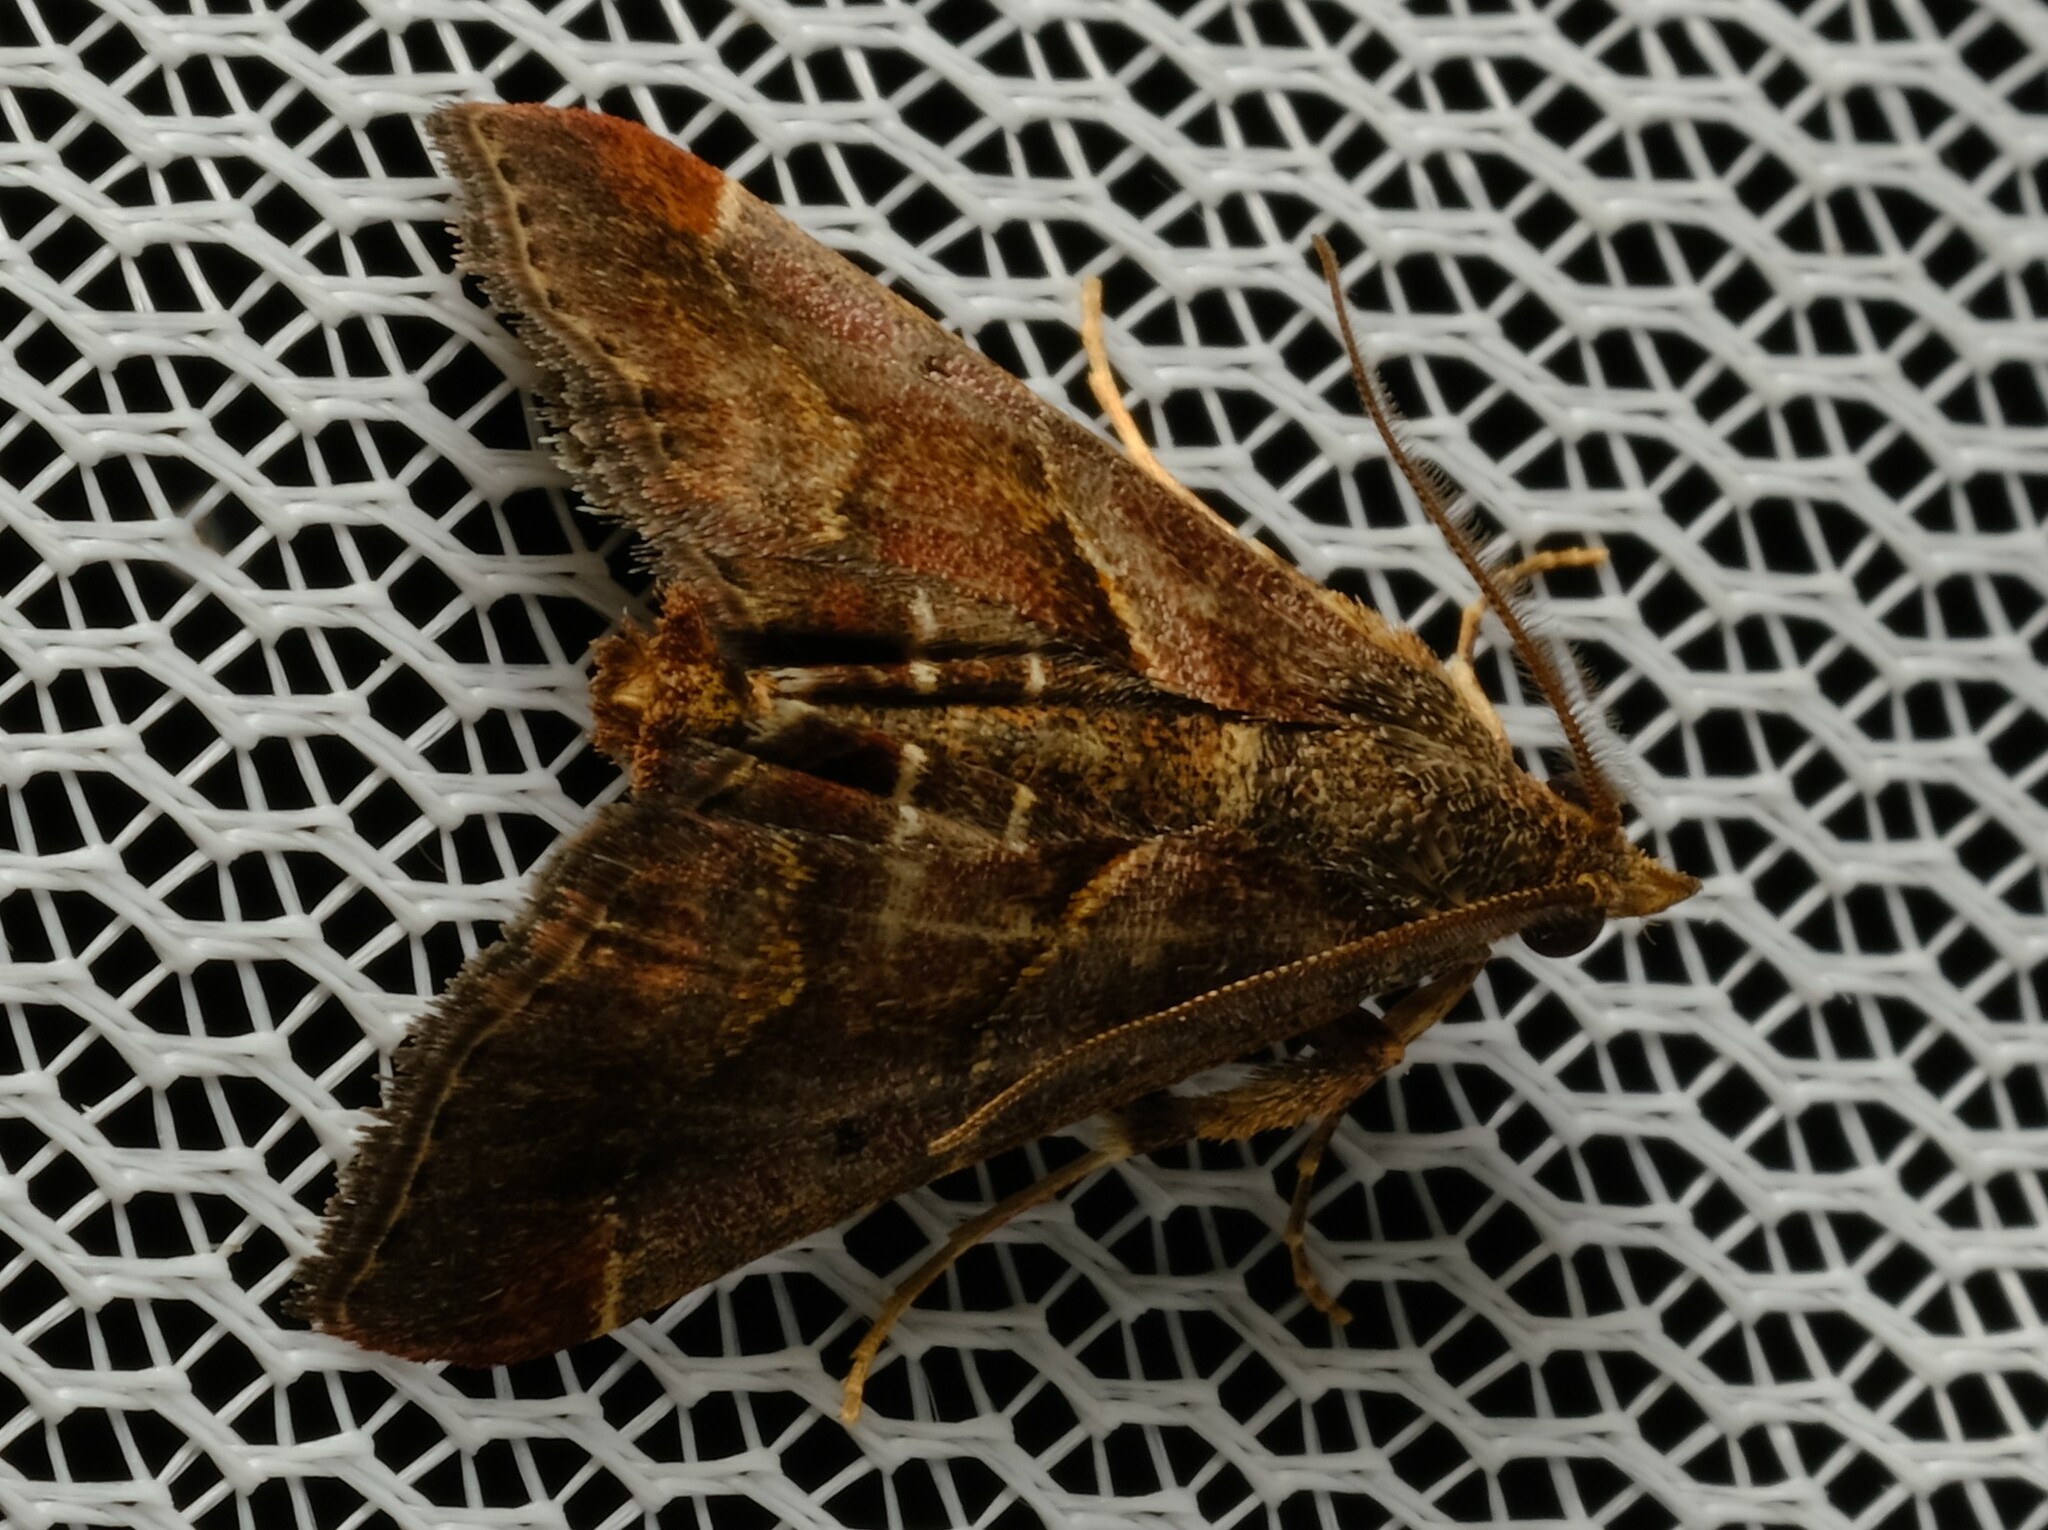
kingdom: Animalia
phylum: Arthropoda
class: Insecta
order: Lepidoptera
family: Pyralidae
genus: Gauna
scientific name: Gauna aegusalis
